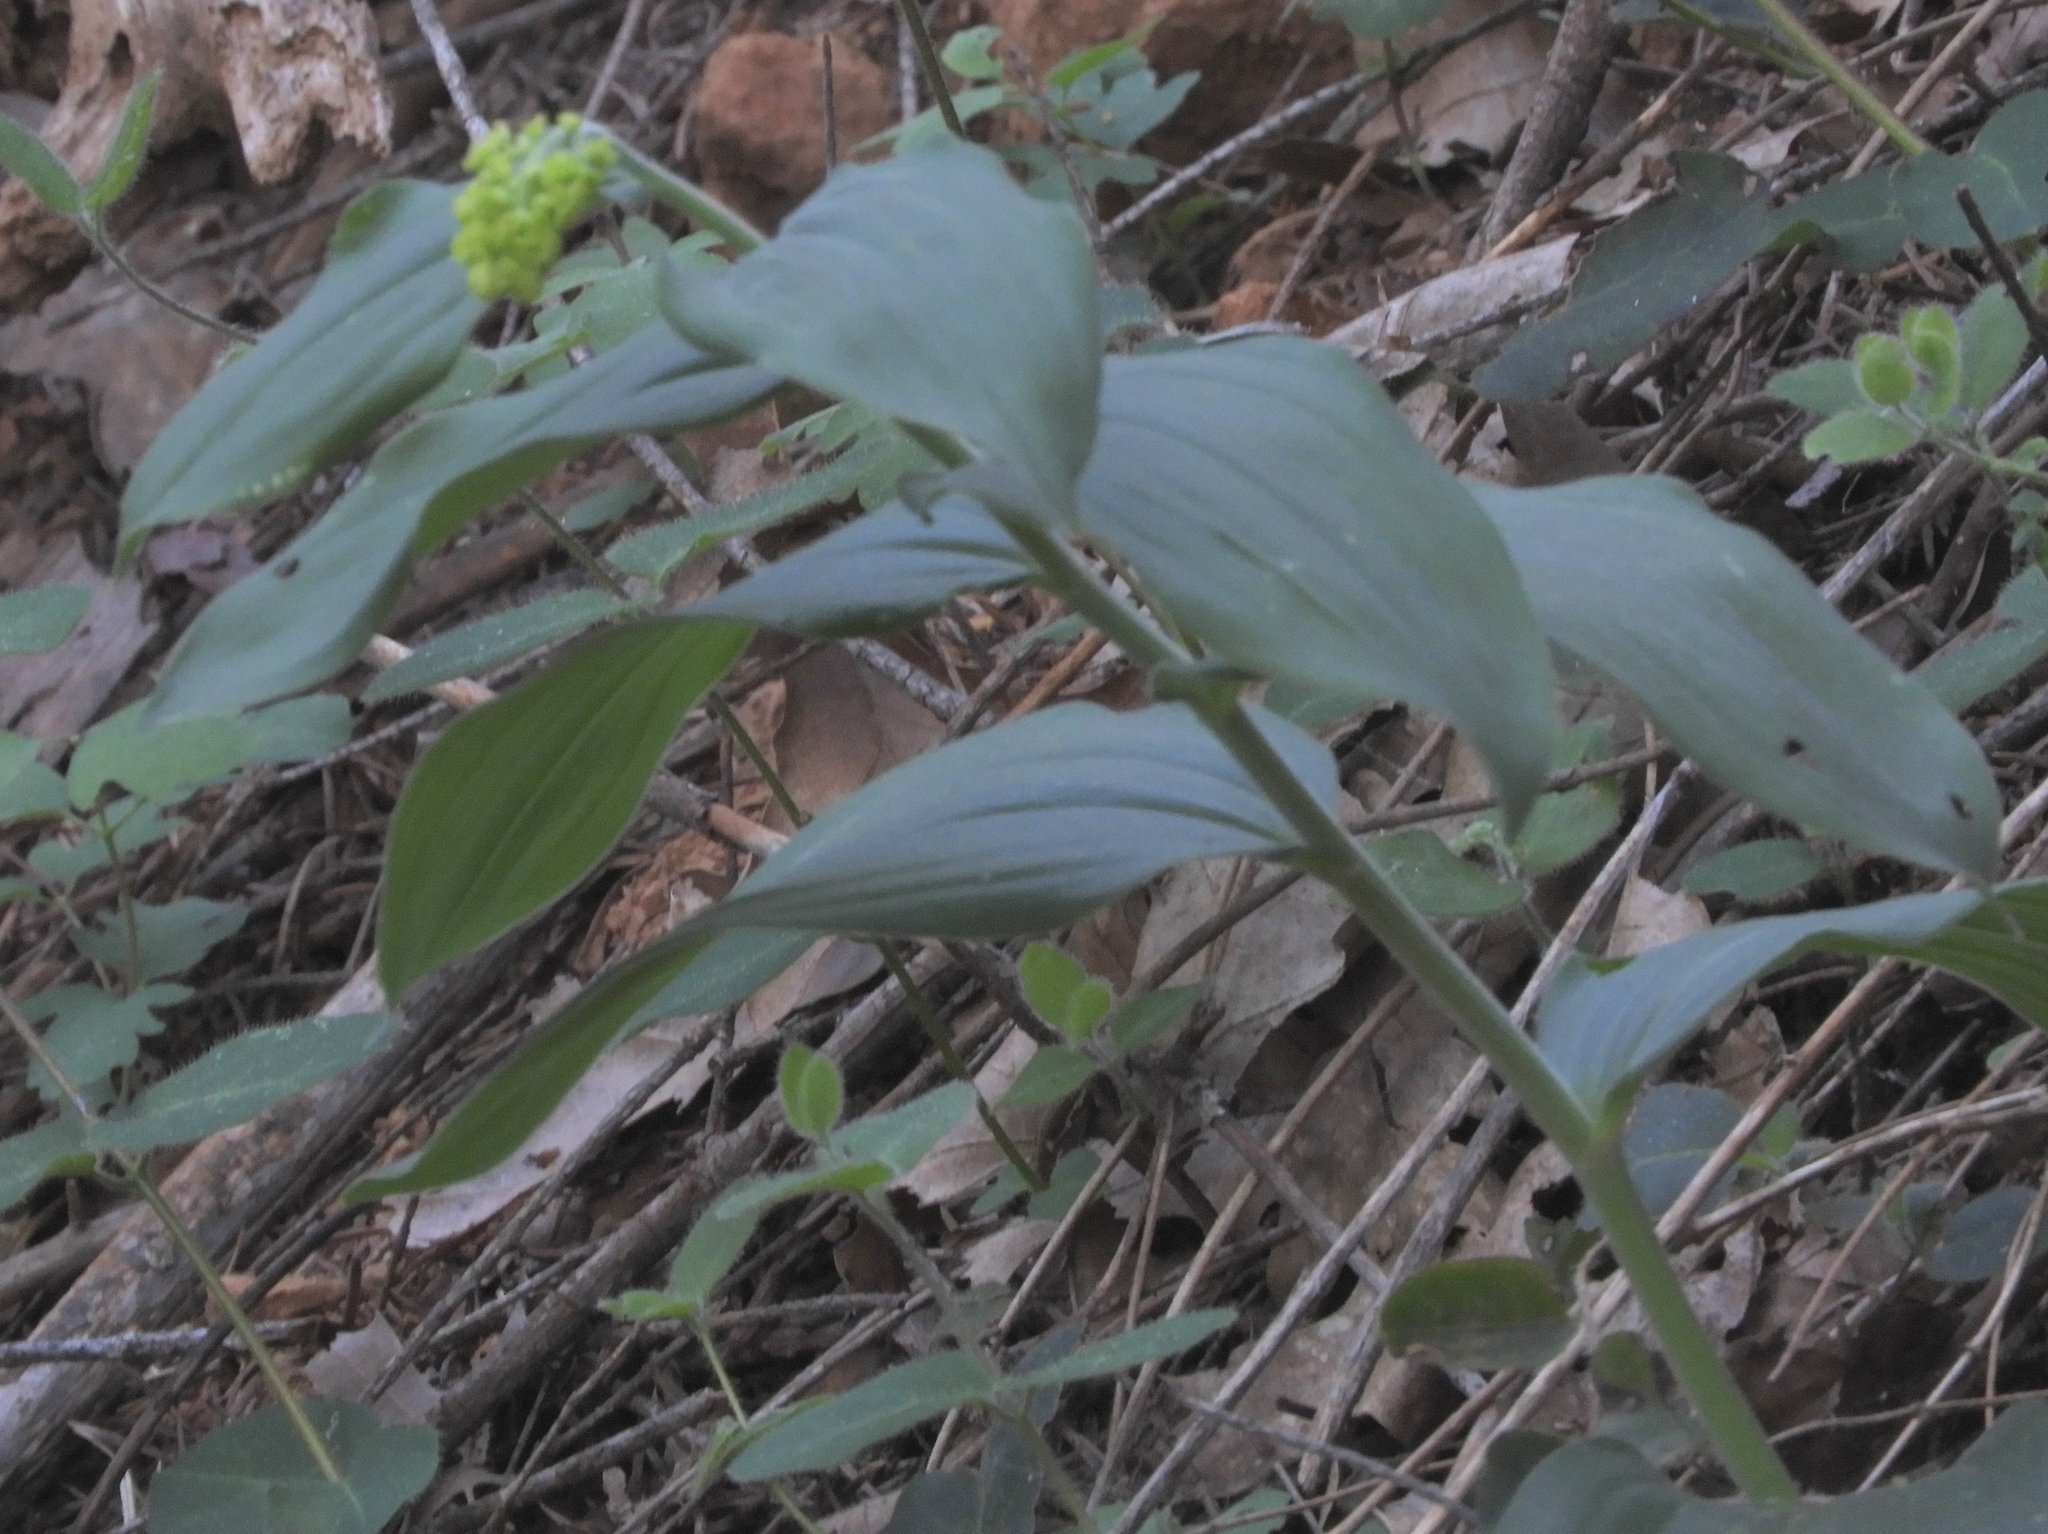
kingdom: Plantae
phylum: Tracheophyta
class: Liliopsida
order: Asparagales
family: Asparagaceae
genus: Maianthemum
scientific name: Maianthemum racemosum
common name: False spikenard
